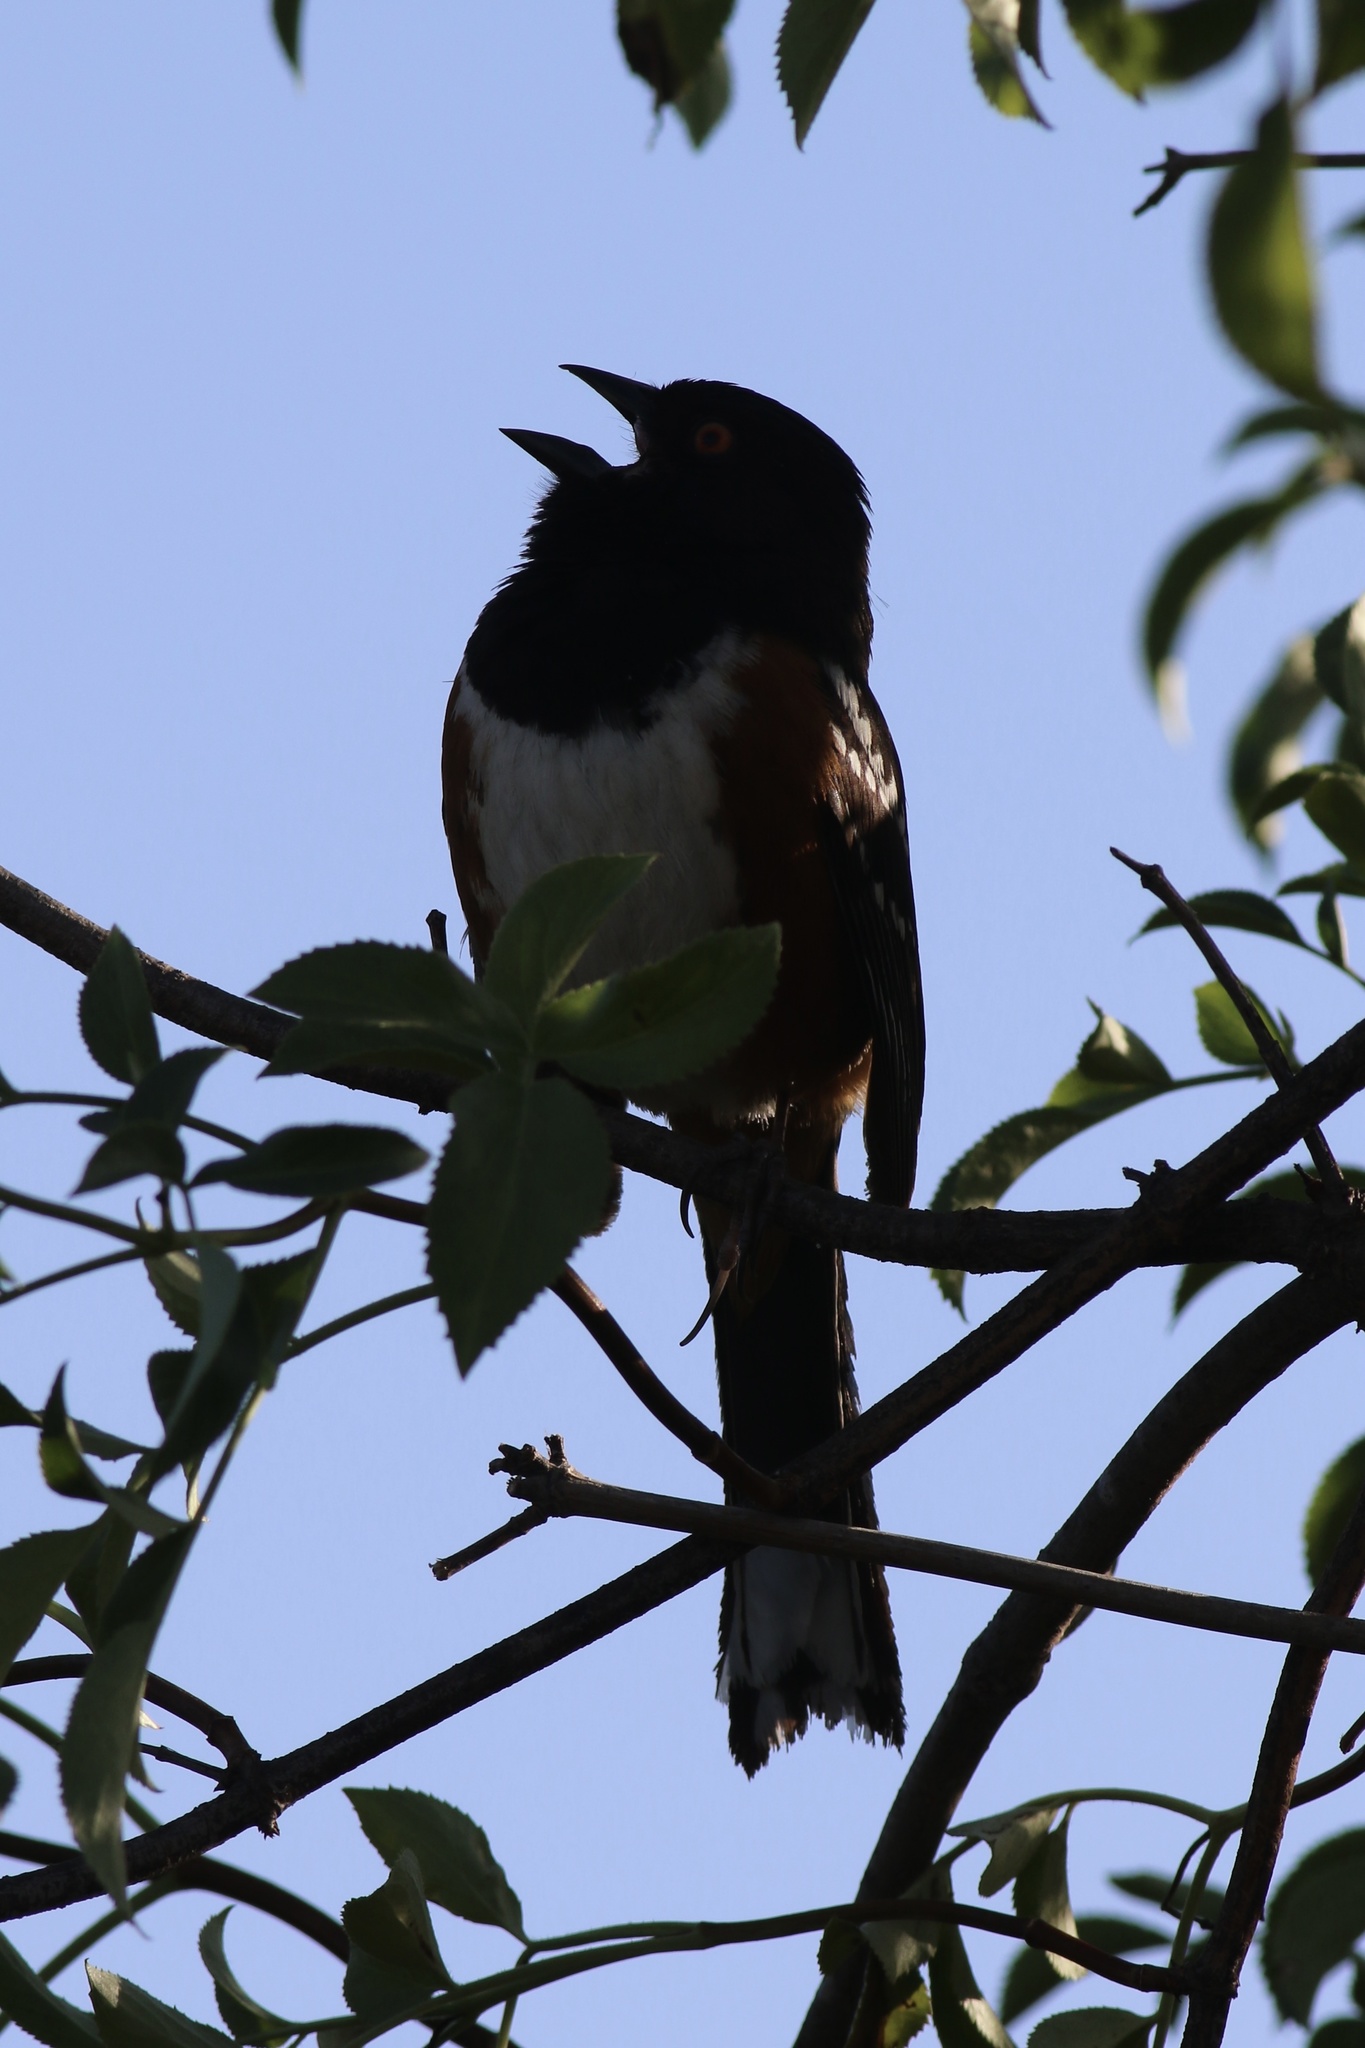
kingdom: Animalia
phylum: Chordata
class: Aves
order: Passeriformes
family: Passerellidae
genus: Pipilo
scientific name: Pipilo maculatus
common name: Spotted towhee
